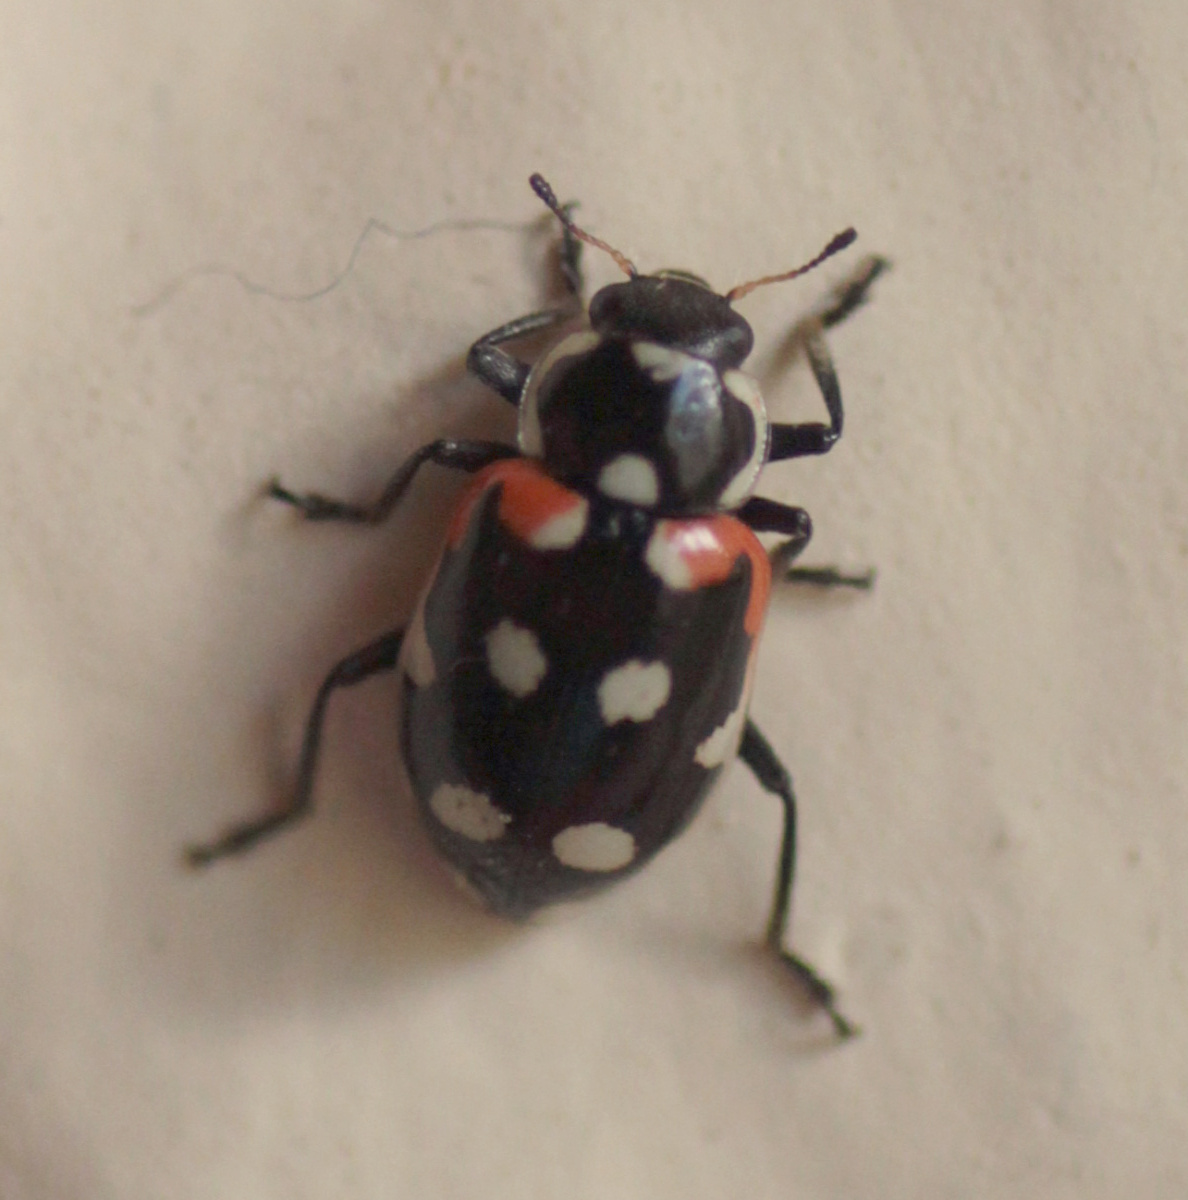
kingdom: Animalia
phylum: Arthropoda
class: Insecta
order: Coleoptera
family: Coccinellidae
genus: Eriopis
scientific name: Eriopis punicola
